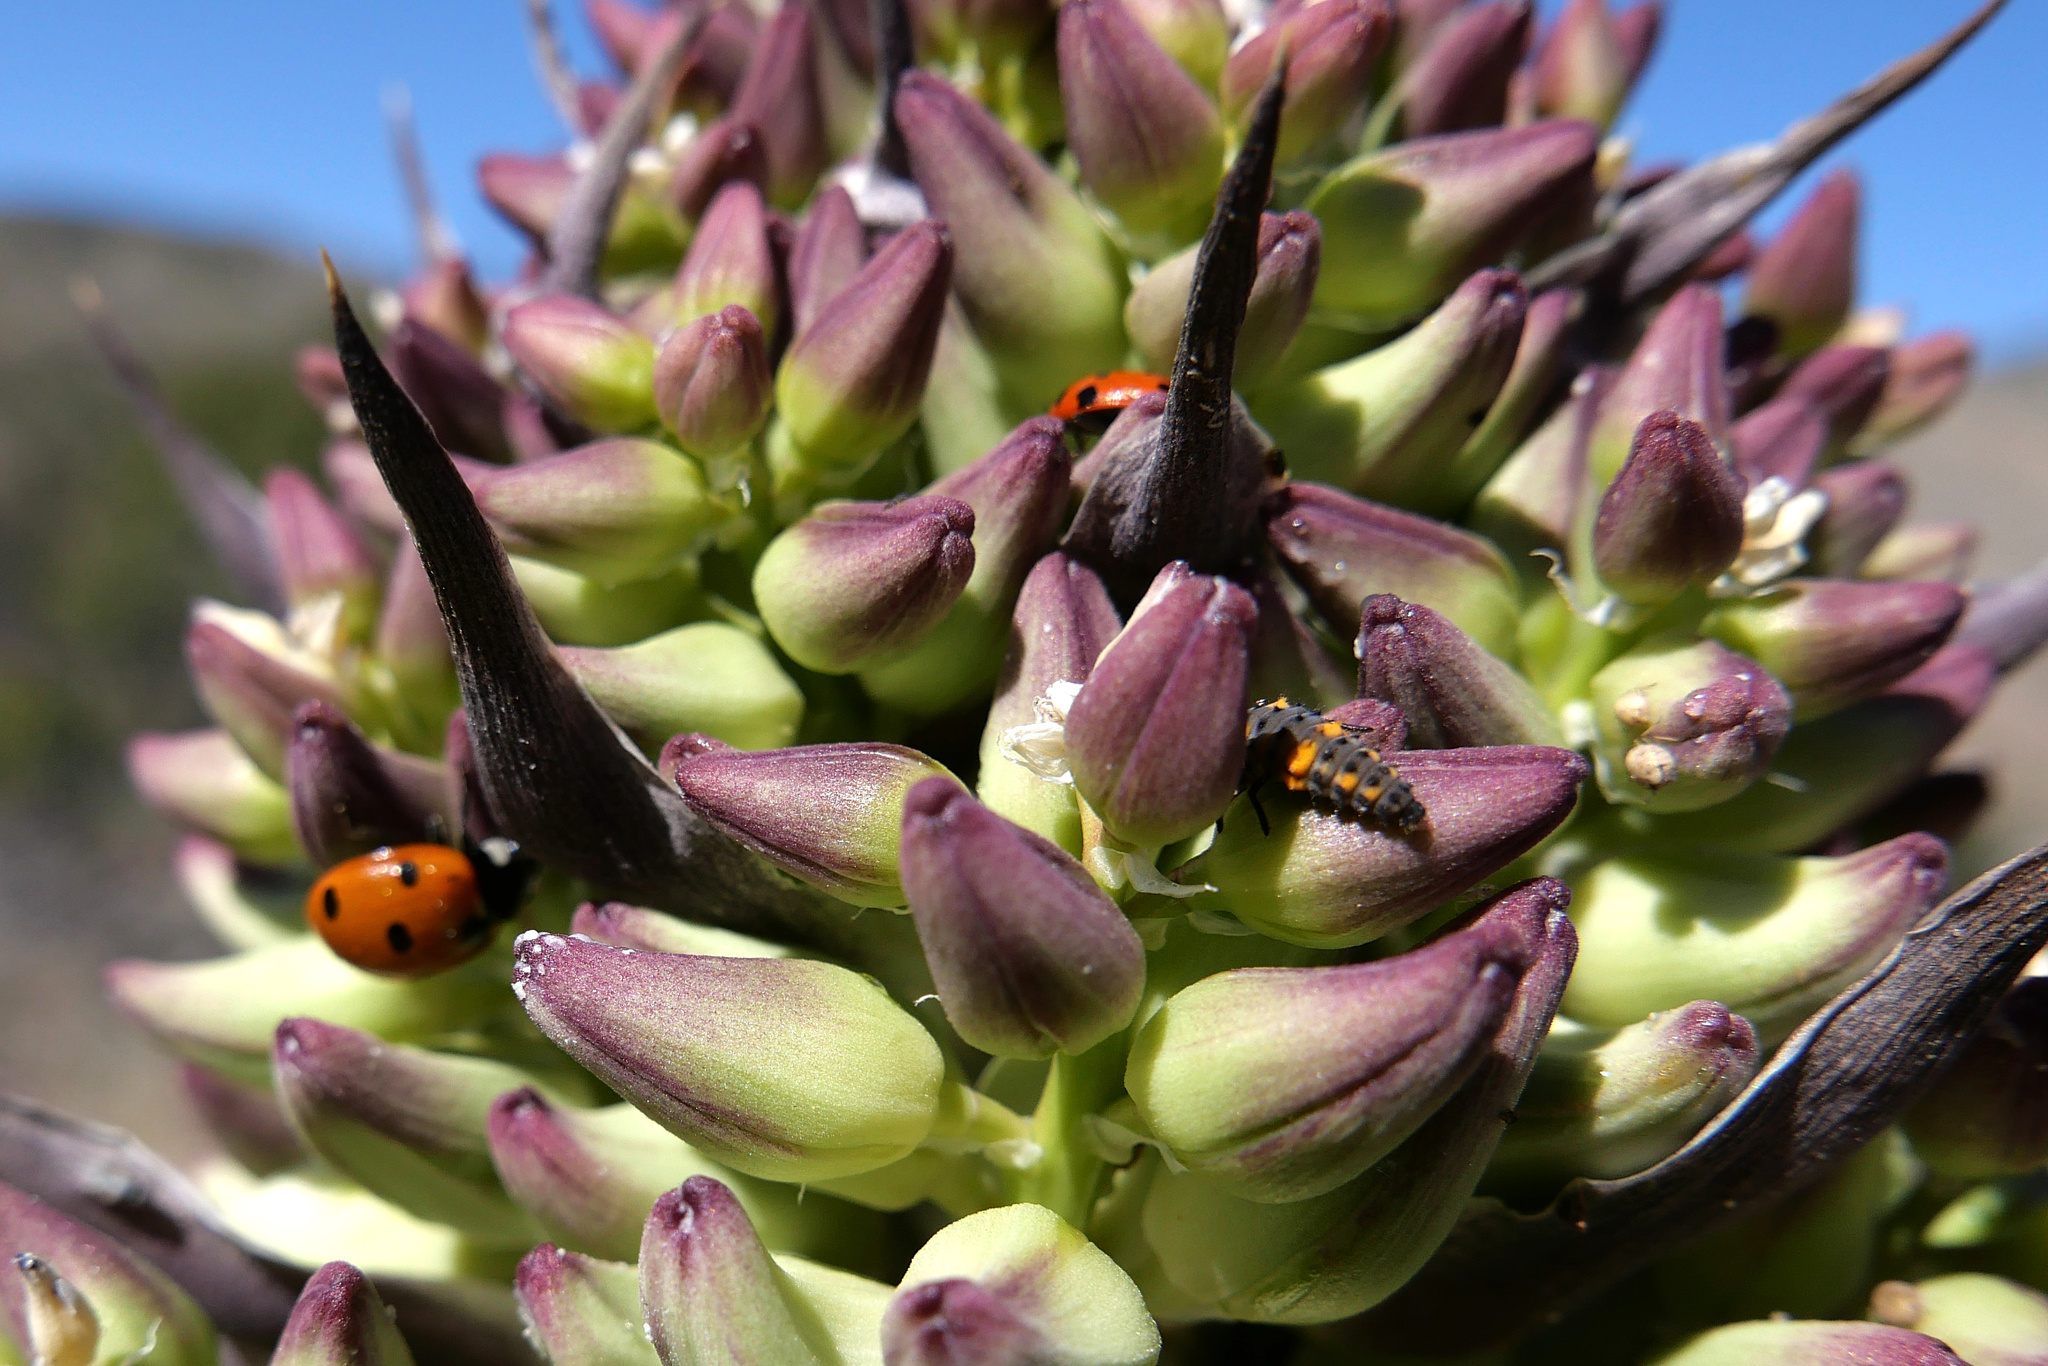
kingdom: Animalia
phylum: Arthropoda
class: Insecta
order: Coleoptera
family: Coccinellidae
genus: Coccinella
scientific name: Coccinella septempunctata
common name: Sevenspotted lady beetle
